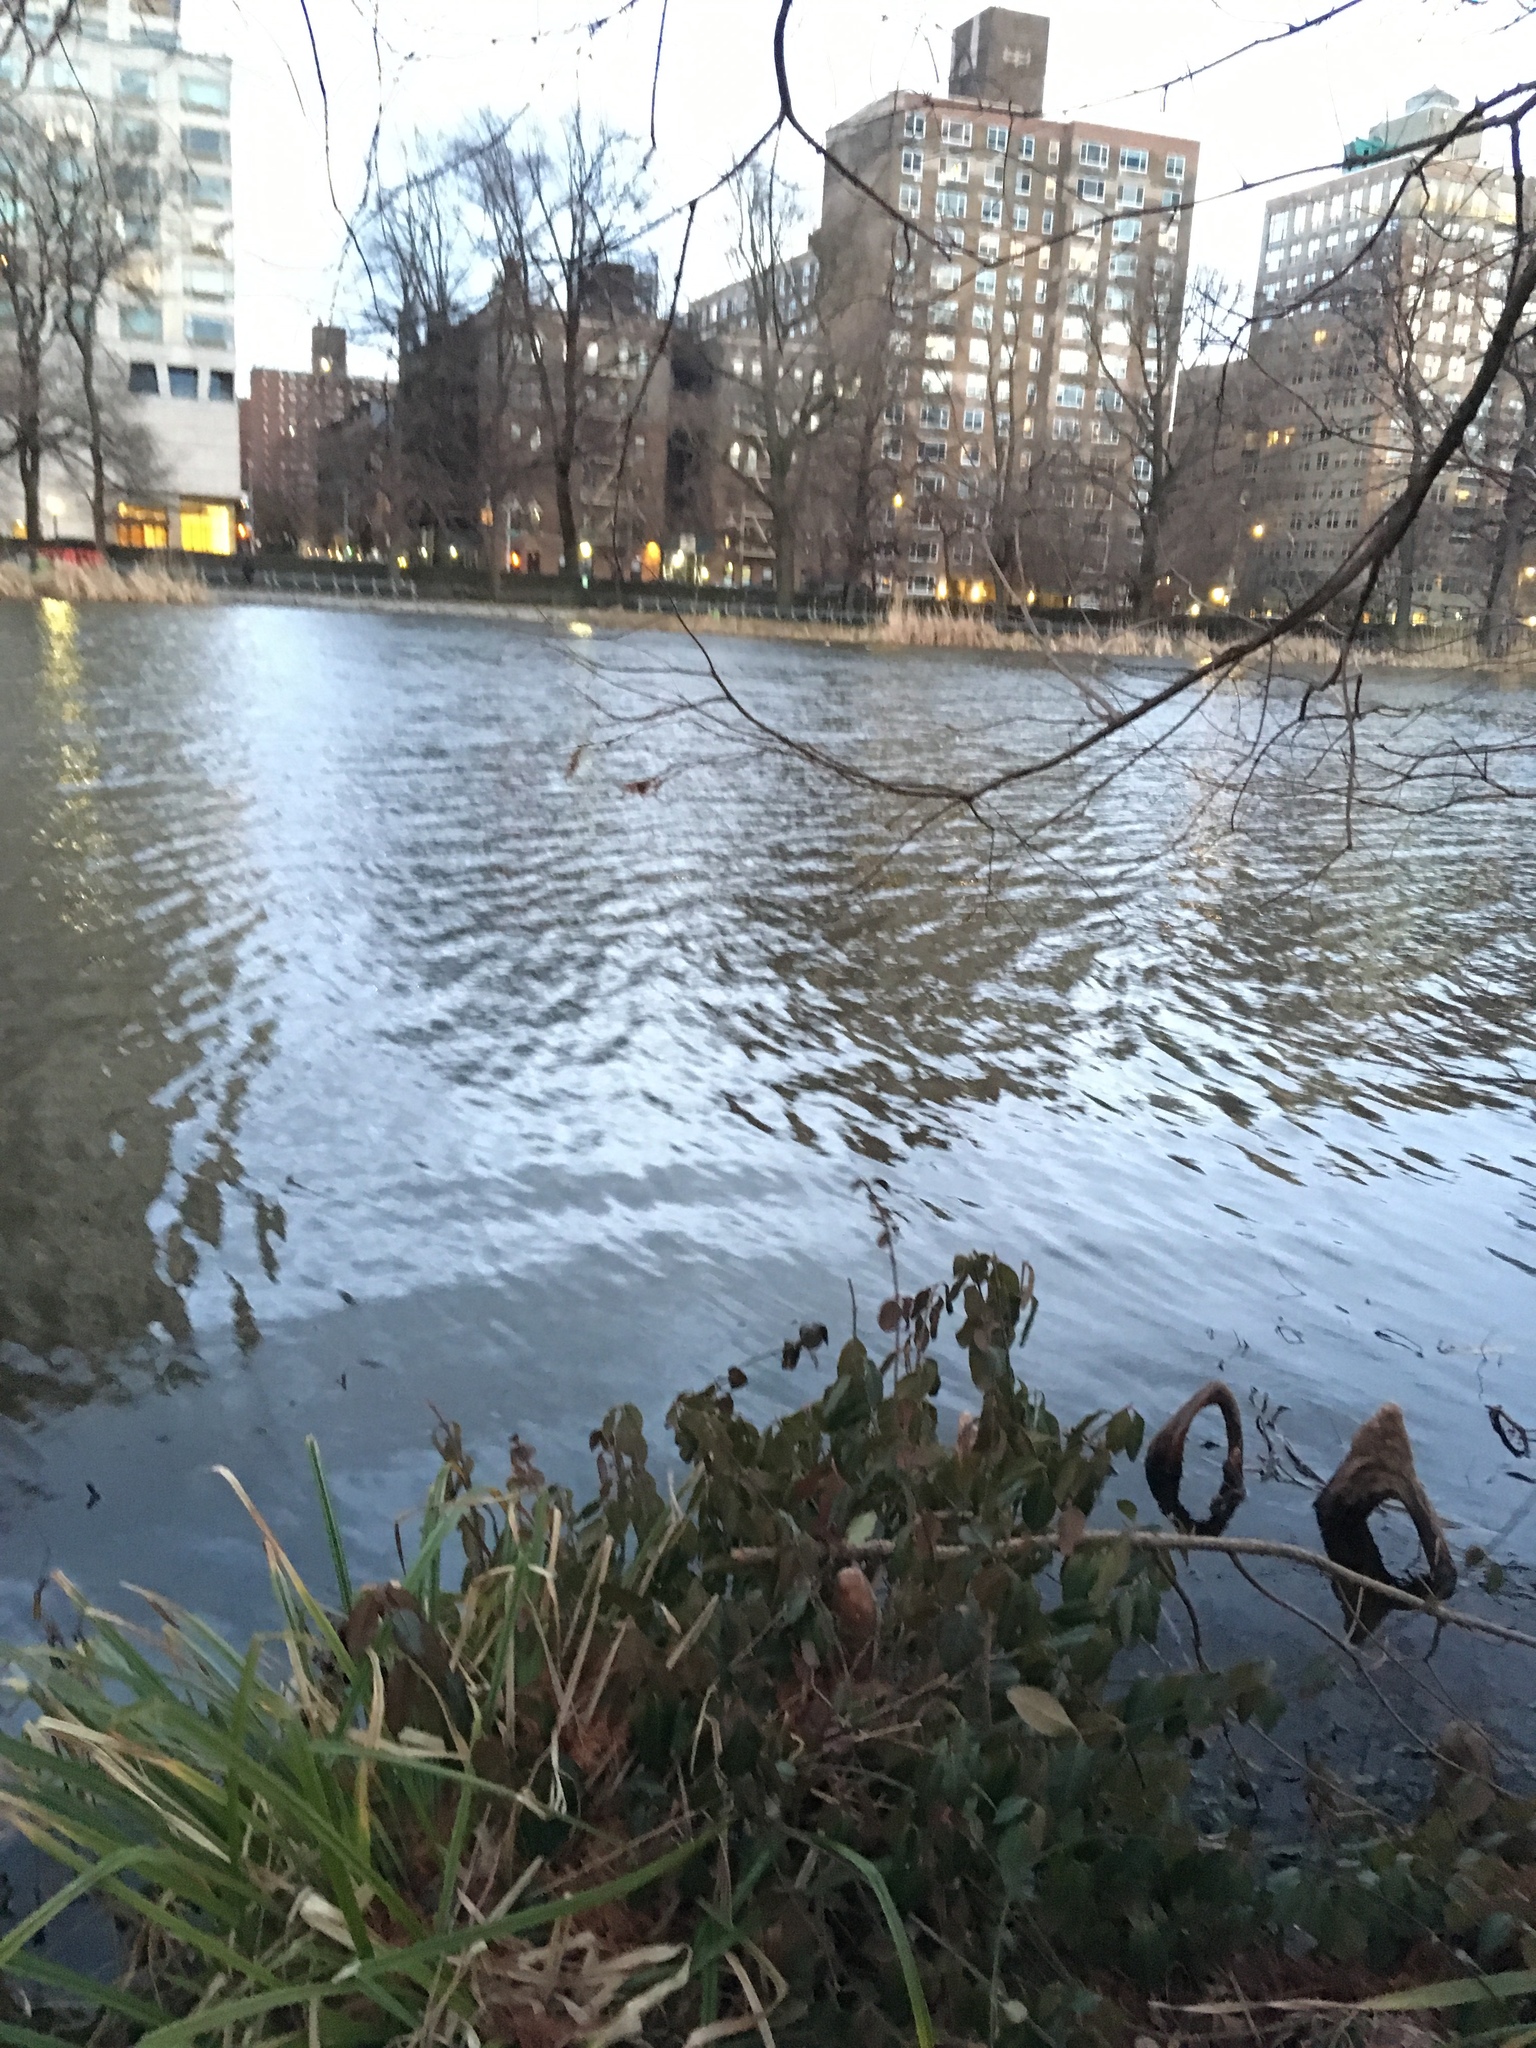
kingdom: Plantae
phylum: Tracheophyta
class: Magnoliopsida
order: Celastrales
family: Celastraceae
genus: Euonymus
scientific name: Euonymus fortunei
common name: Climbing euonymus
